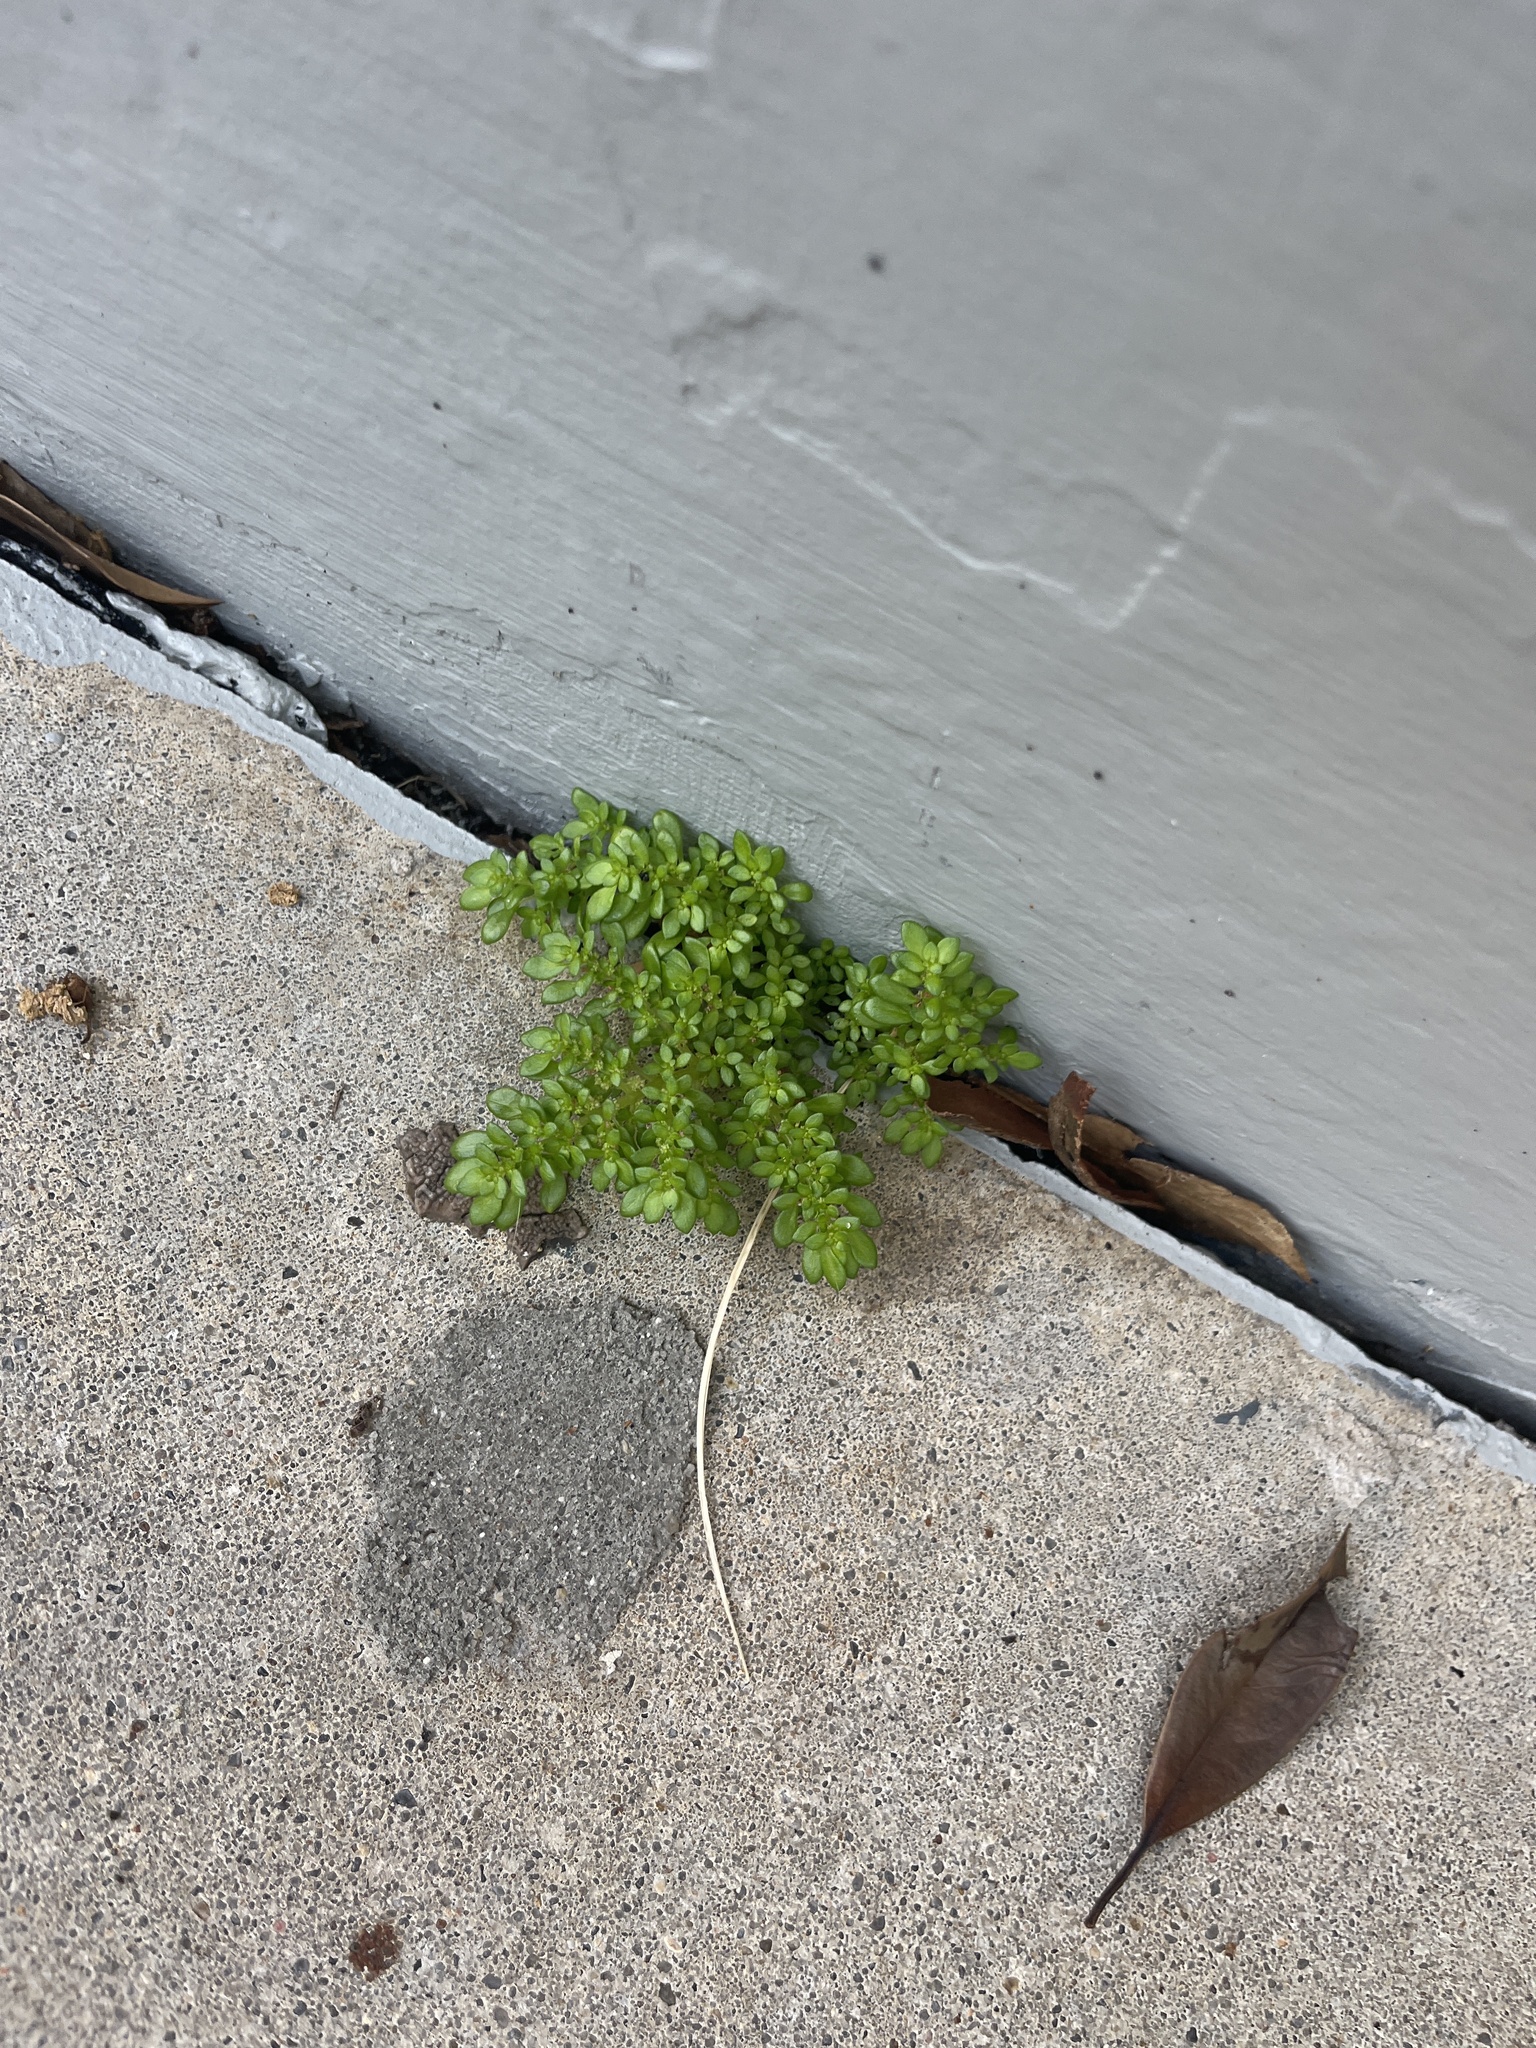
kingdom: Plantae
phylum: Tracheophyta
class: Magnoliopsida
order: Rosales
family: Urticaceae
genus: Pilea
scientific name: Pilea microphylla
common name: Artillery-plant
